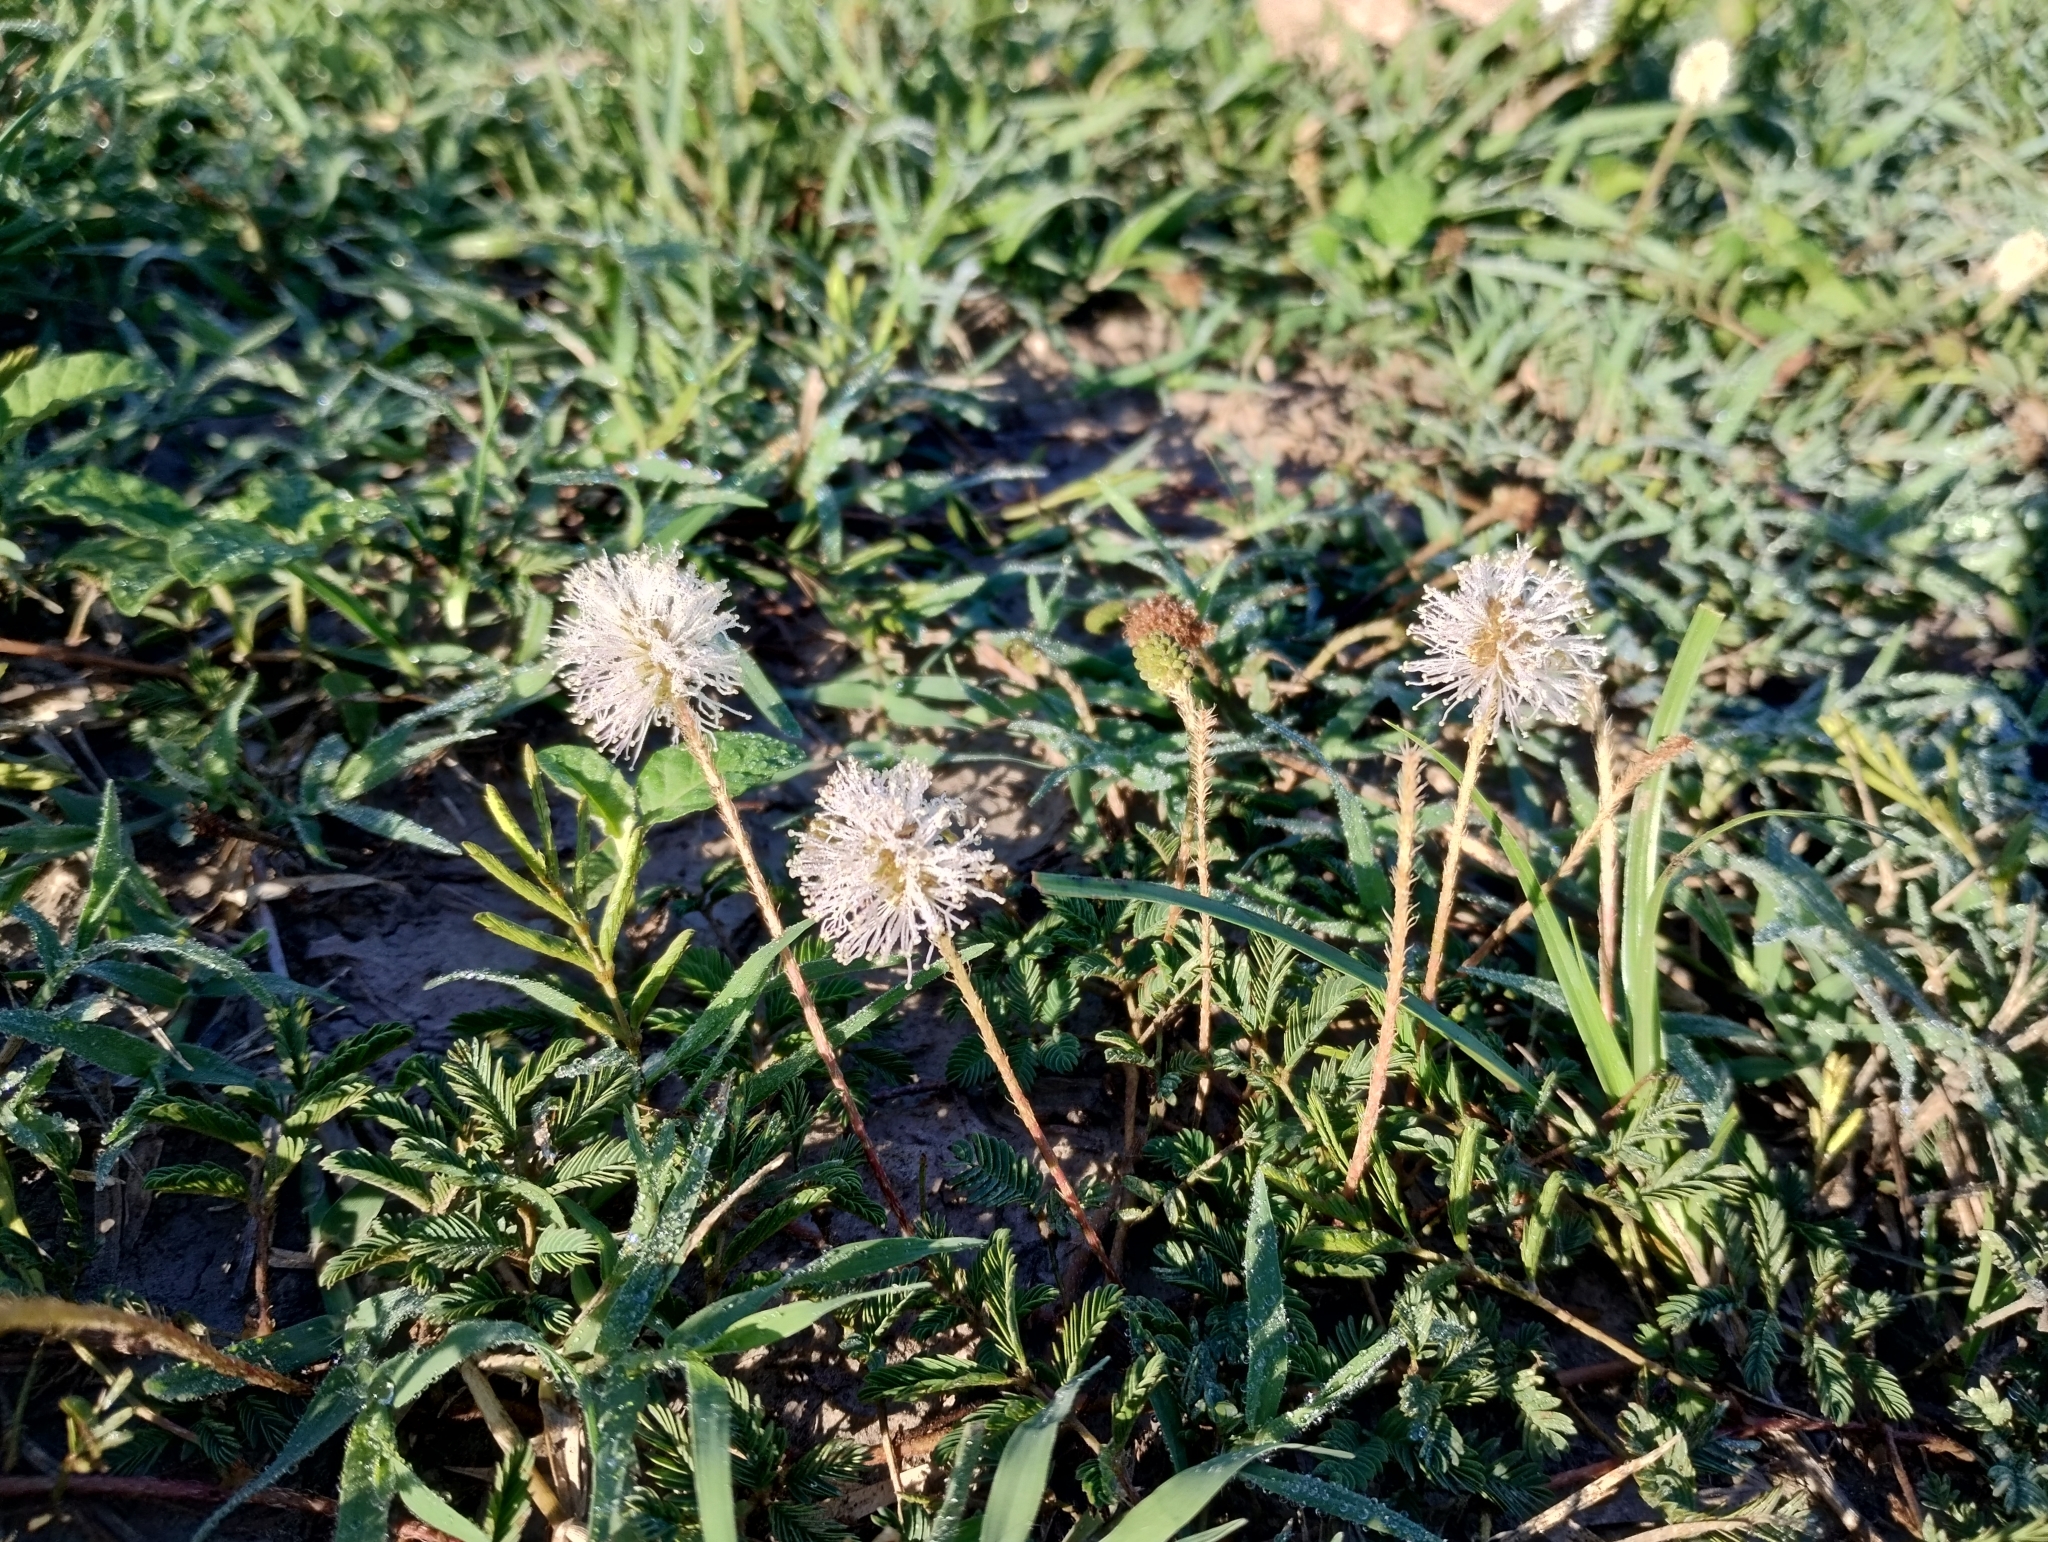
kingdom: Plantae
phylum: Tracheophyta
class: Magnoliopsida
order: Fabales
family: Fabaceae
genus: Mimosa
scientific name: Mimosa strigillosa
